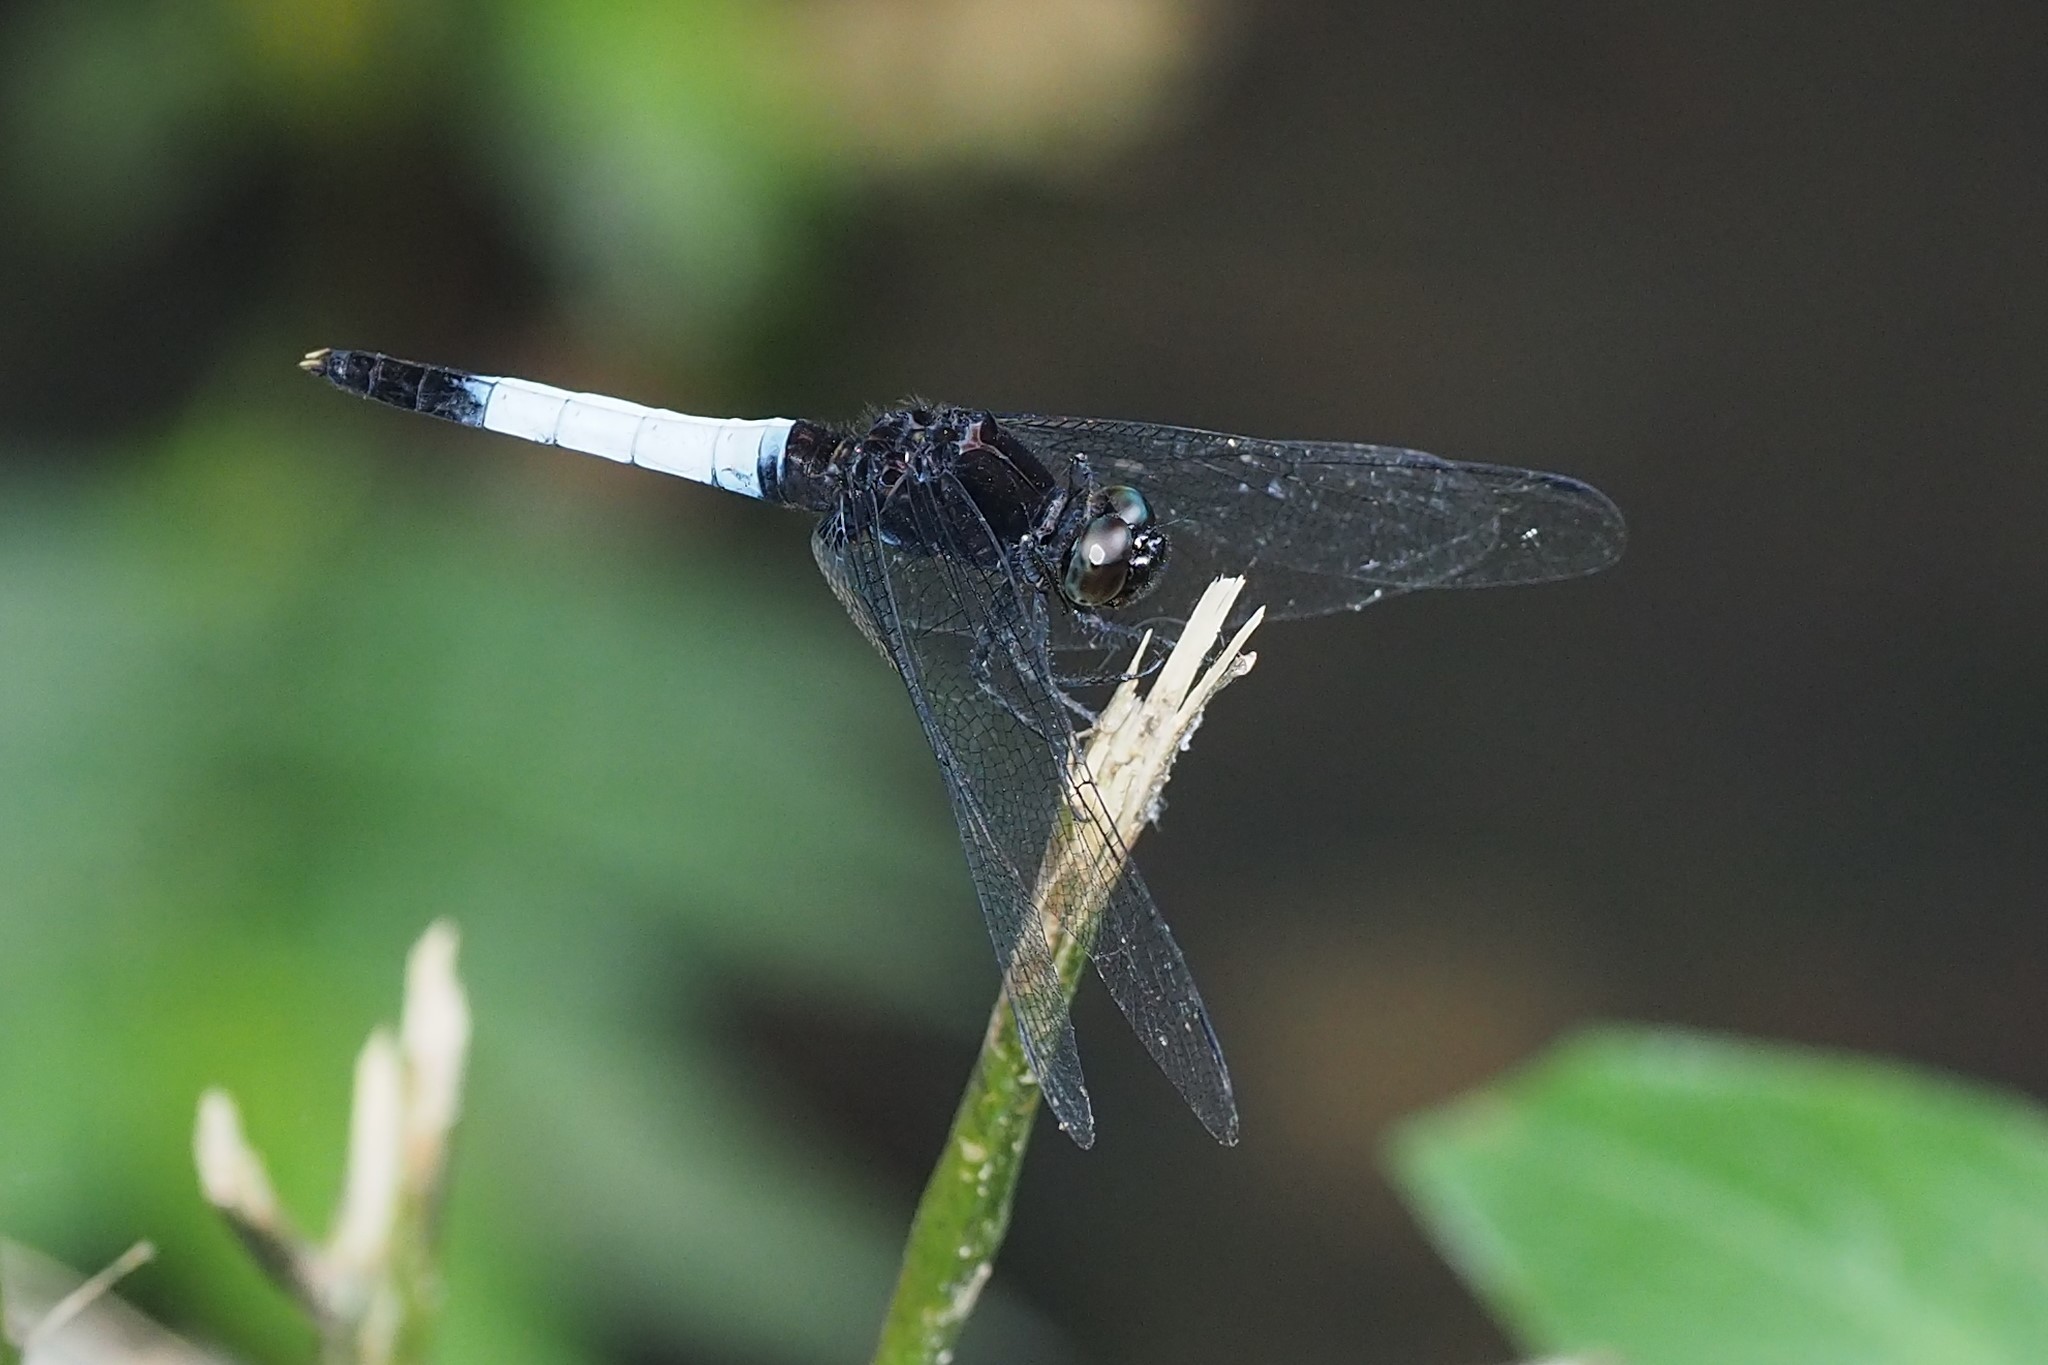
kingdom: Animalia
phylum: Arthropoda
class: Insecta
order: Odonata
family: Libellulidae
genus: Orthetrum
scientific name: Orthetrum triangulare
